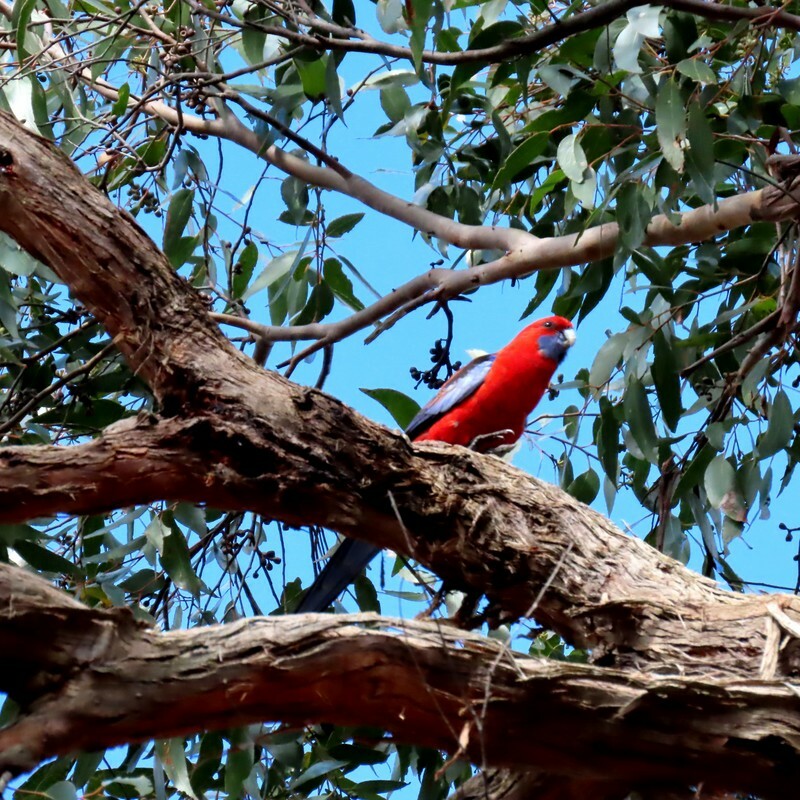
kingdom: Animalia
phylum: Chordata
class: Aves
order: Psittaciformes
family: Psittacidae
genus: Platycercus
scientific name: Platycercus elegans
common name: Crimson rosella
